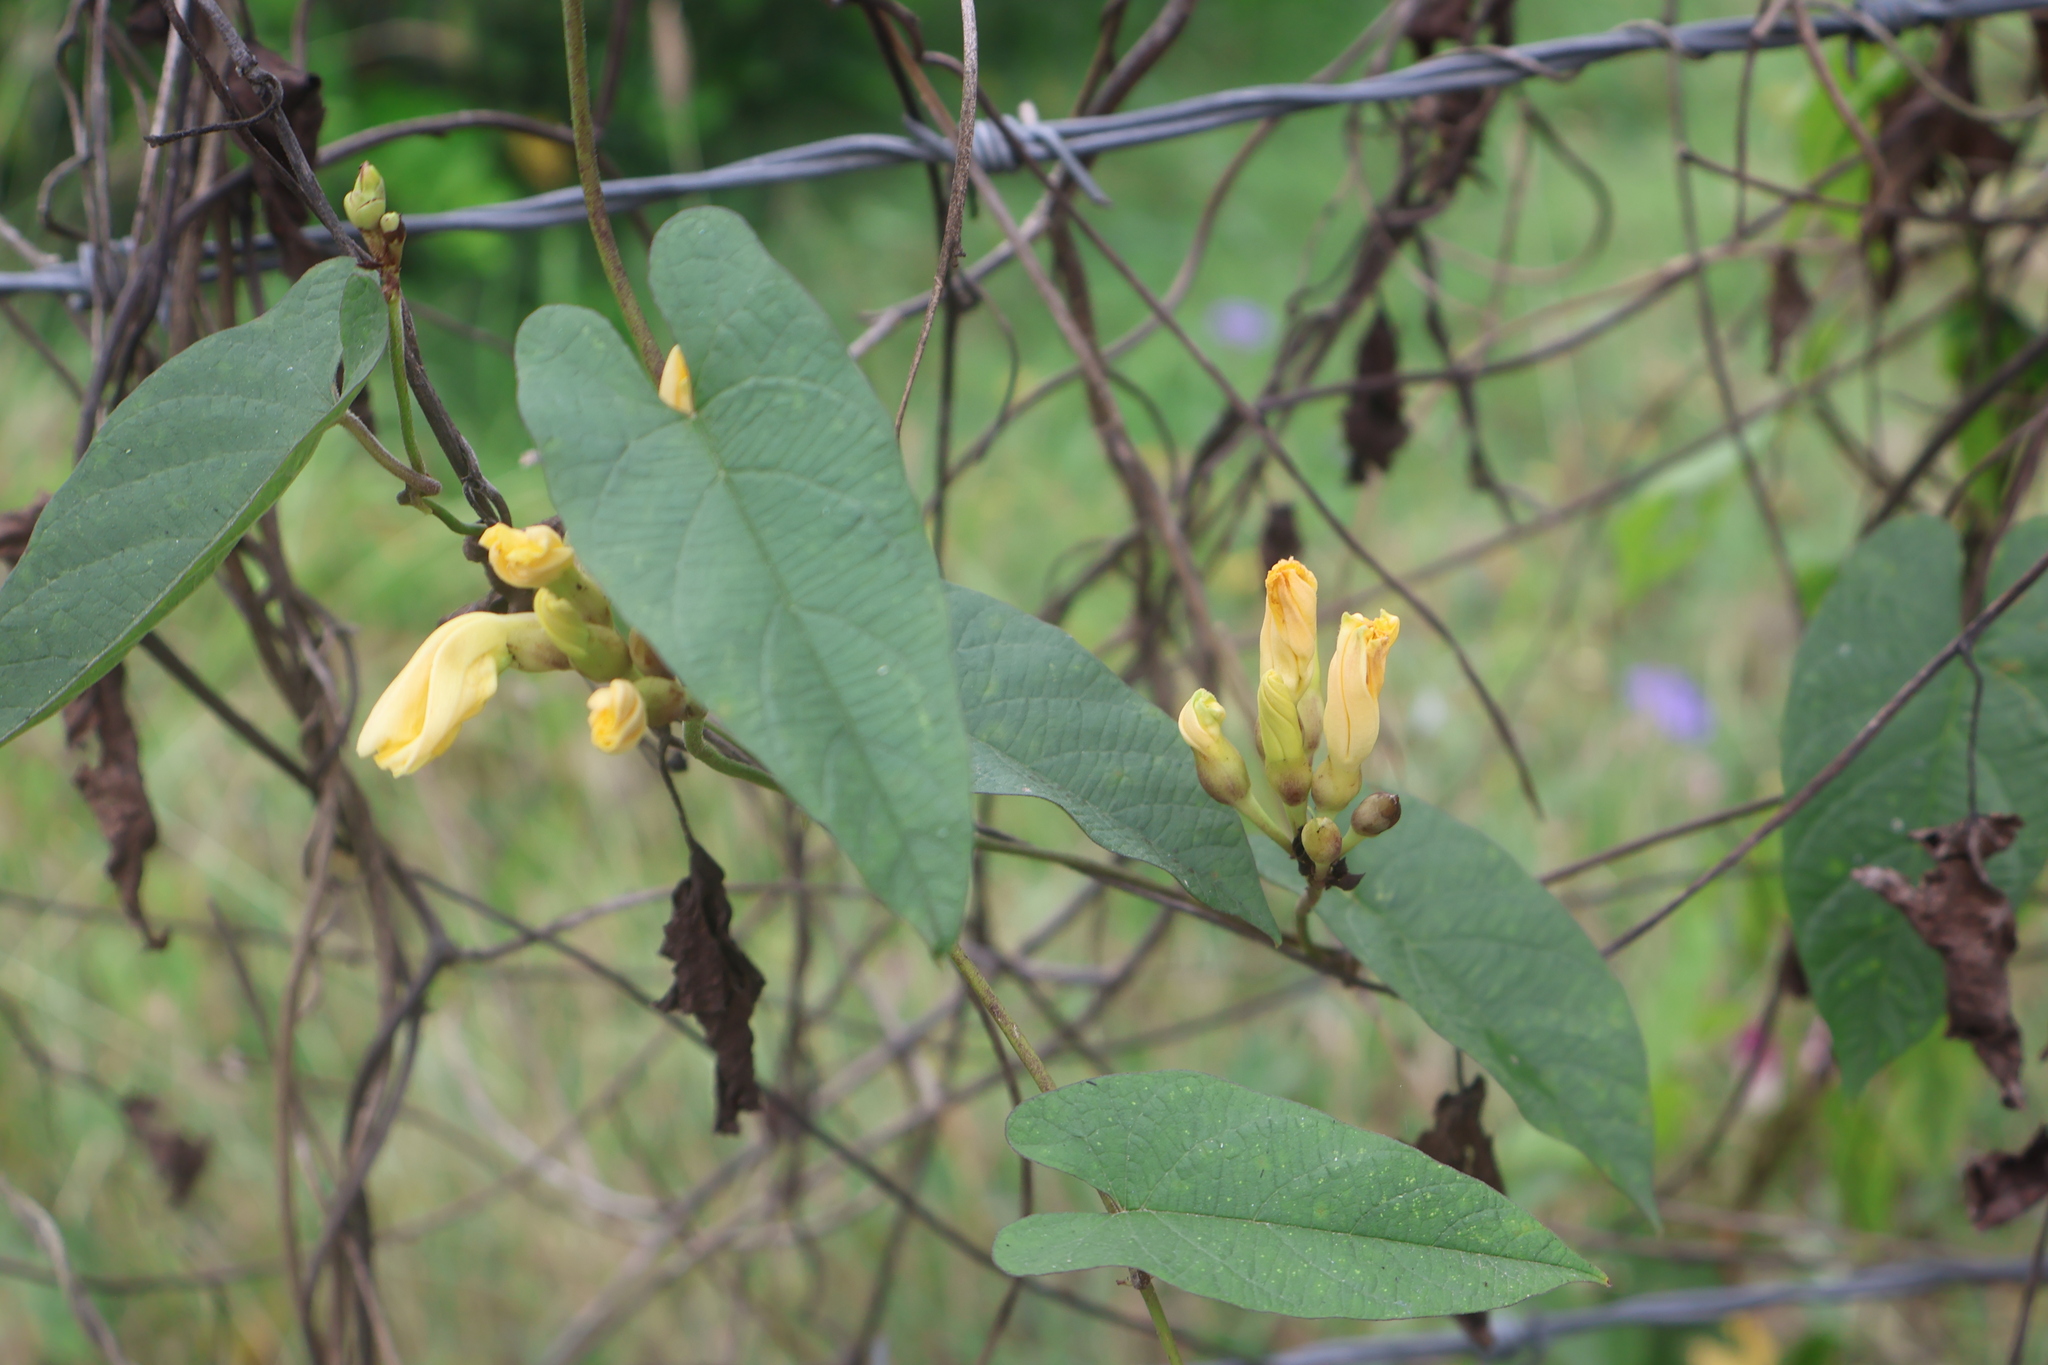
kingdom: Plantae
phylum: Tracheophyta
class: Magnoliopsida
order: Solanales
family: Convolvulaceae
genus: Camonea
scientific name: Camonea umbellata
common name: Hogvine
